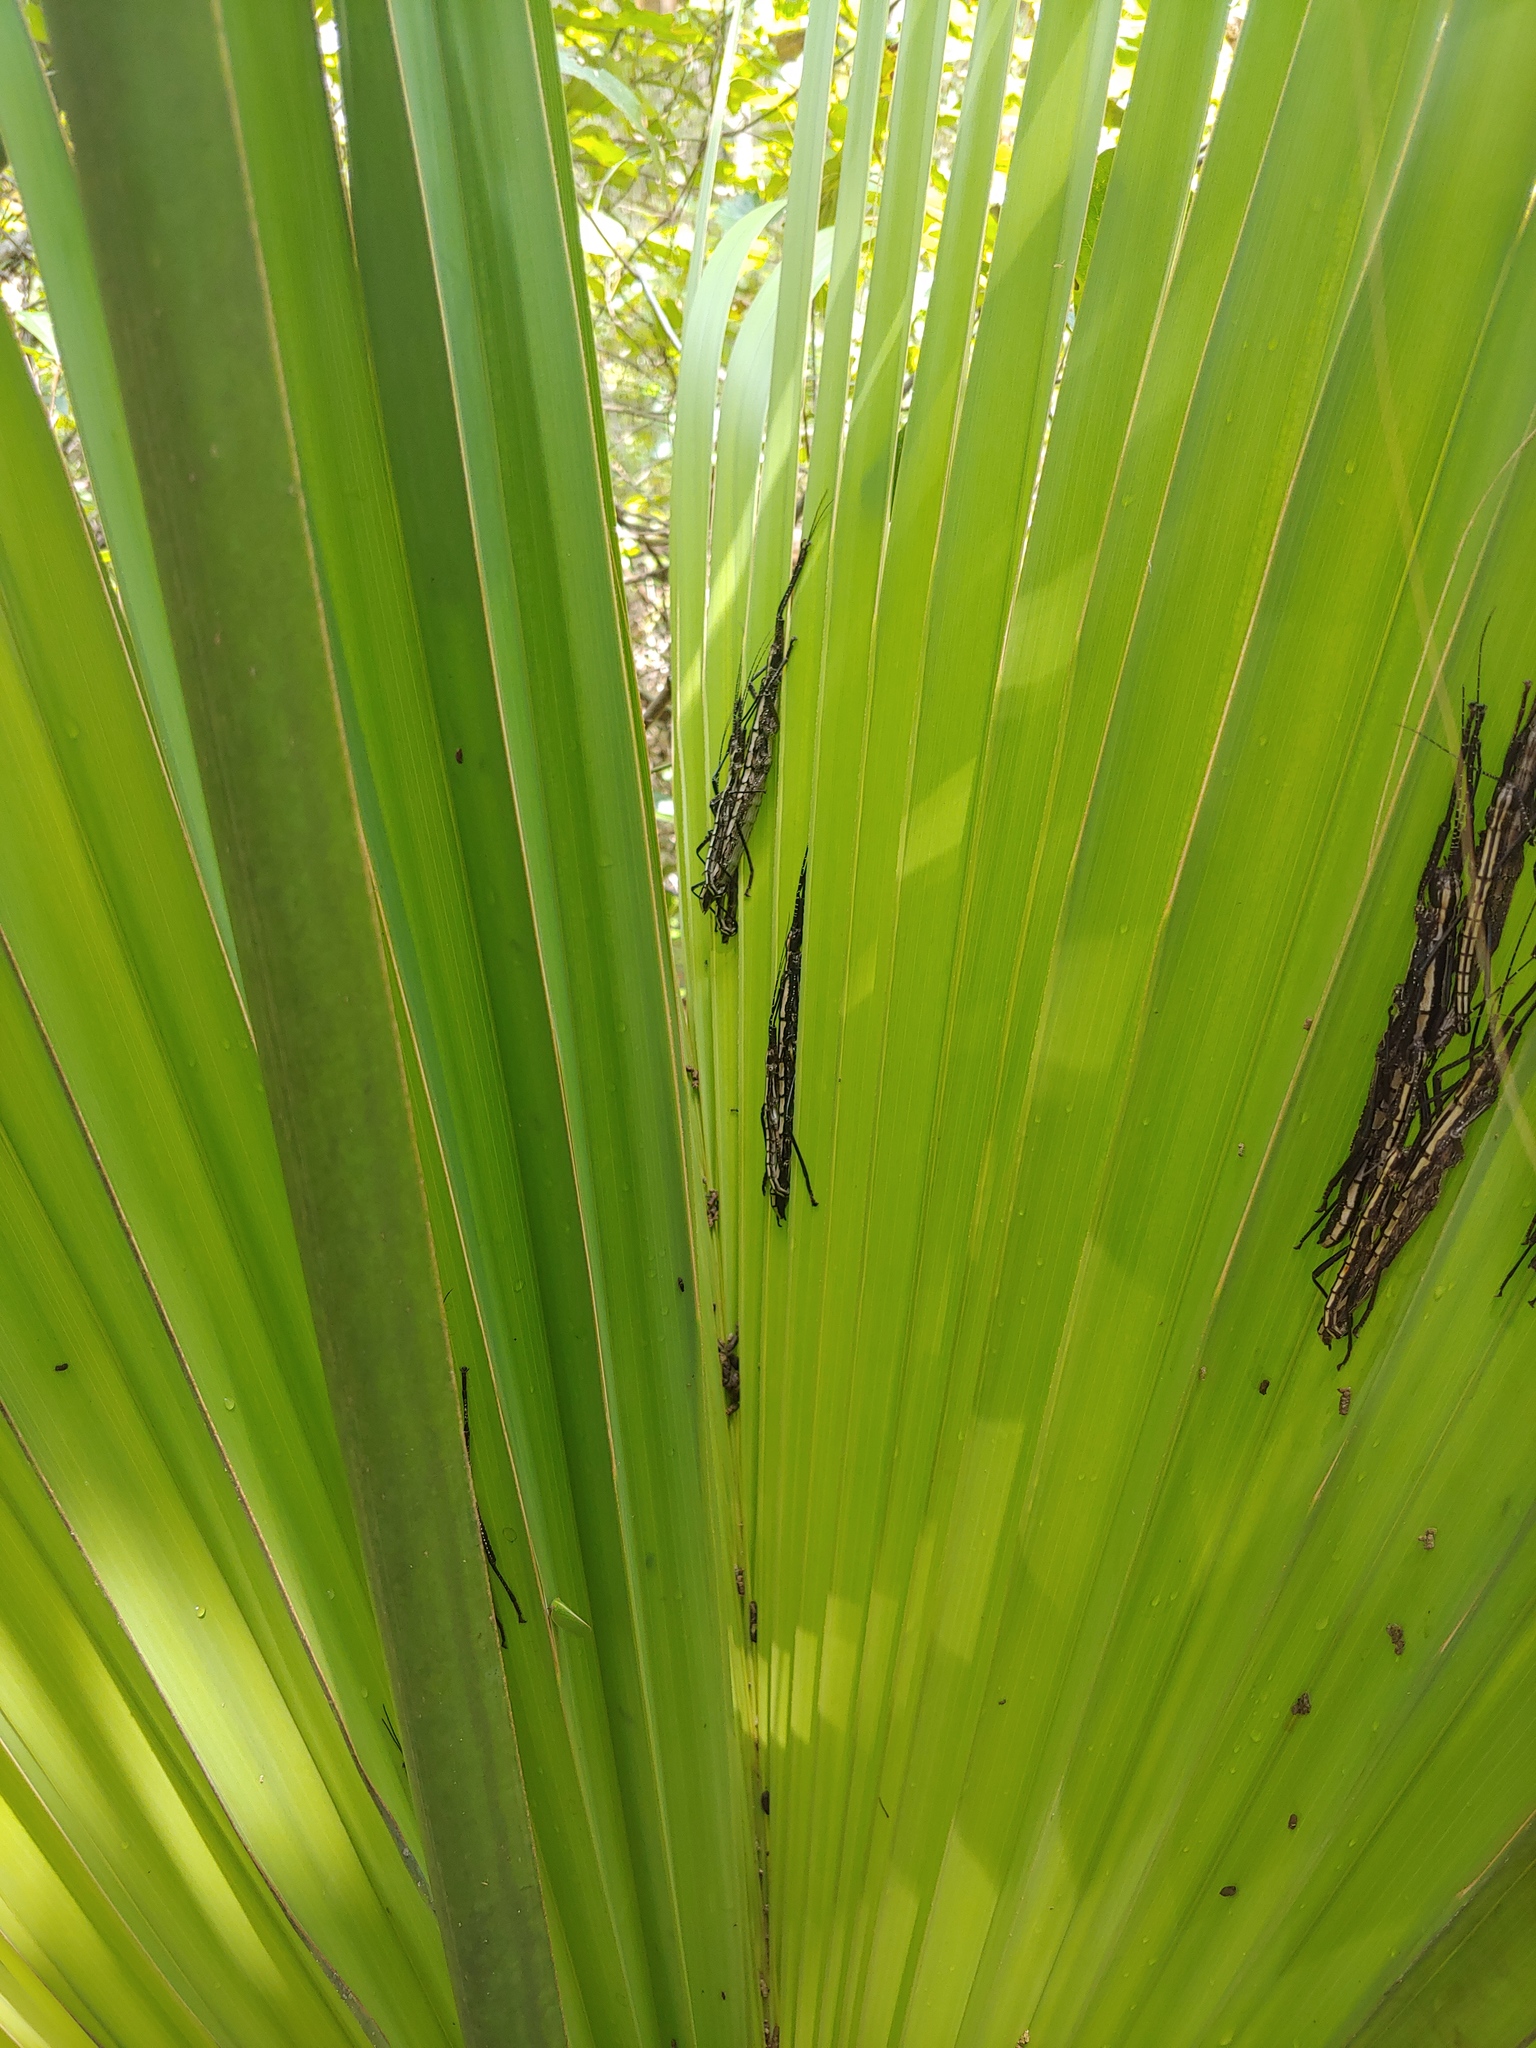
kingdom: Animalia
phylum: Arthropoda
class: Insecta
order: Phasmida
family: Pseudophasmatidae
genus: Anisomorpha
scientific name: Anisomorpha buprestoides
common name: Florida stick insect
